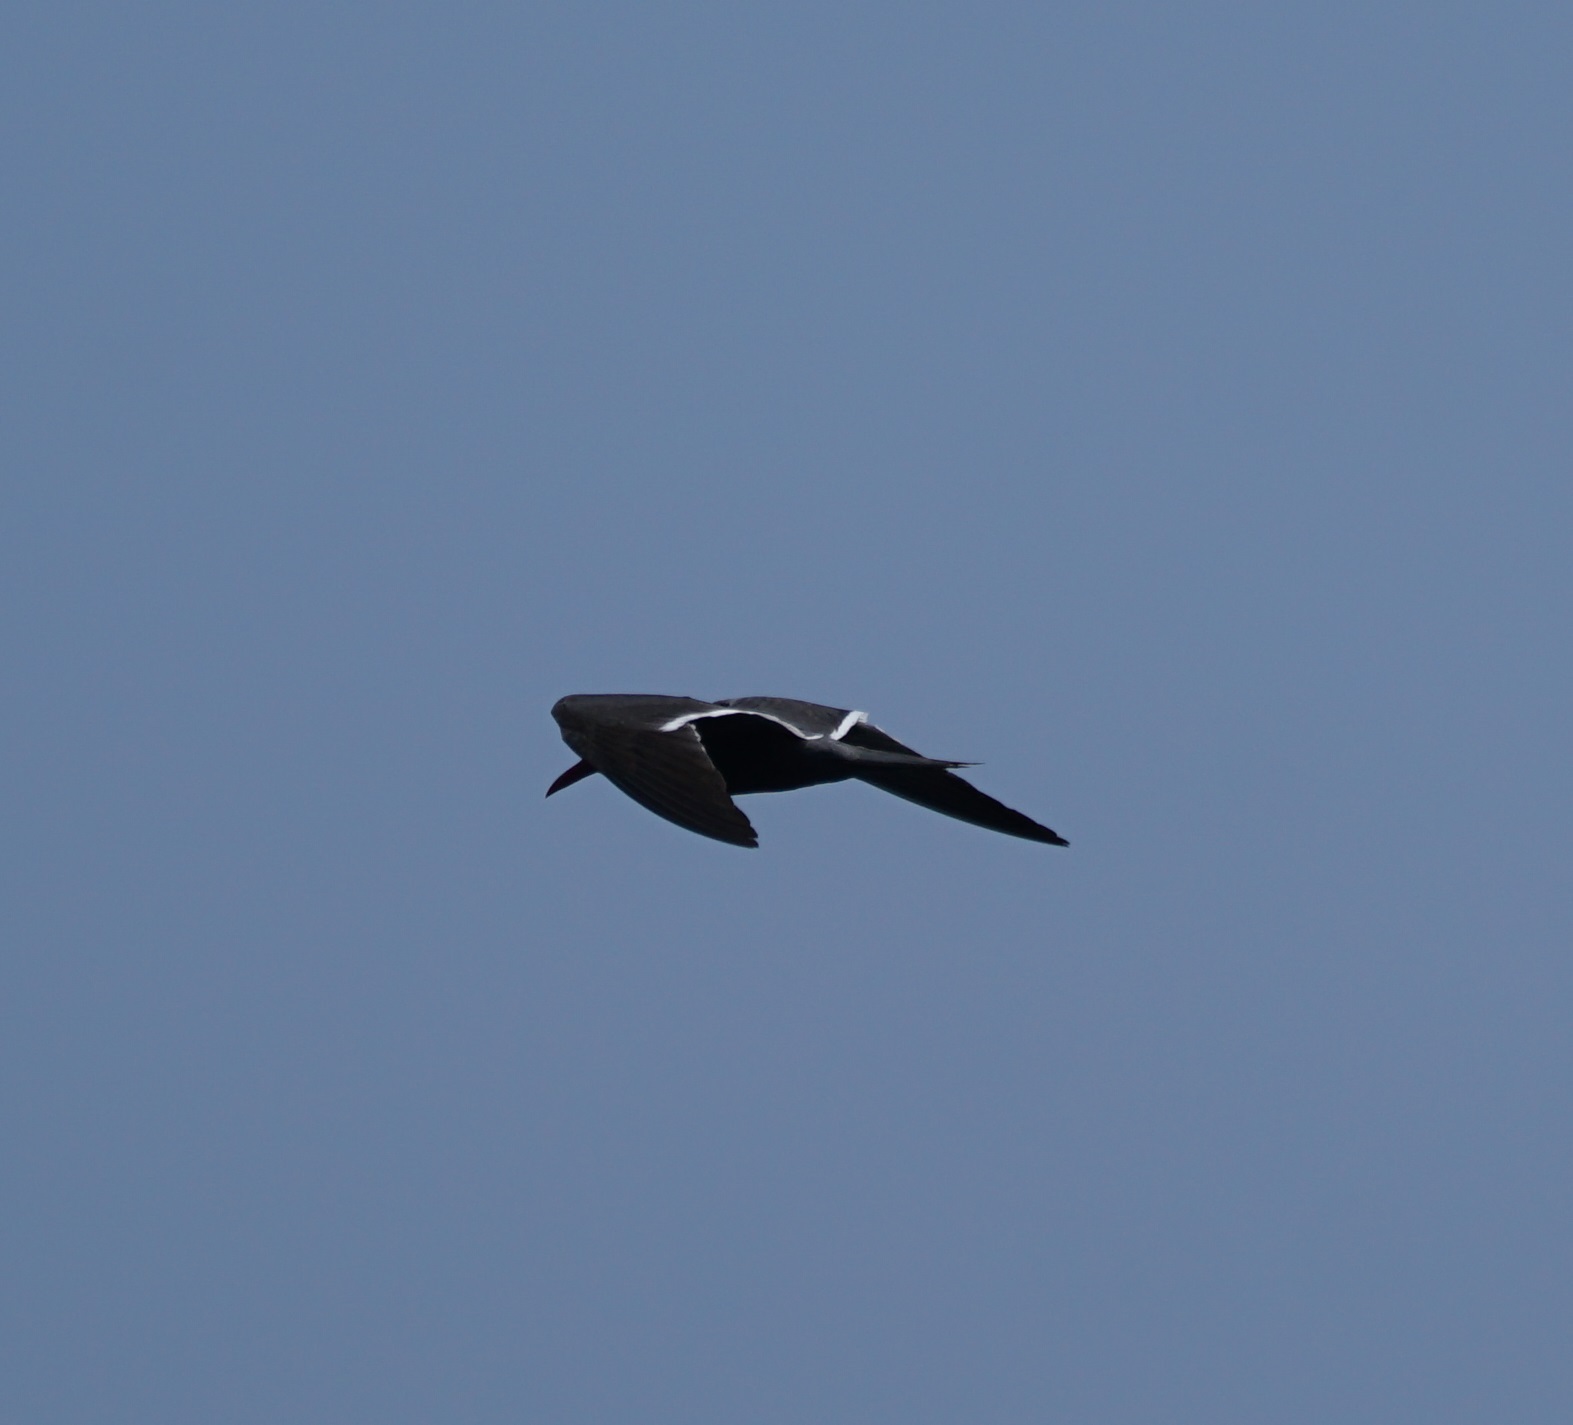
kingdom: Animalia
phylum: Chordata
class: Aves
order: Charadriiformes
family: Laridae
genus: Larosterna
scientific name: Larosterna inca
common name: Inca tern
